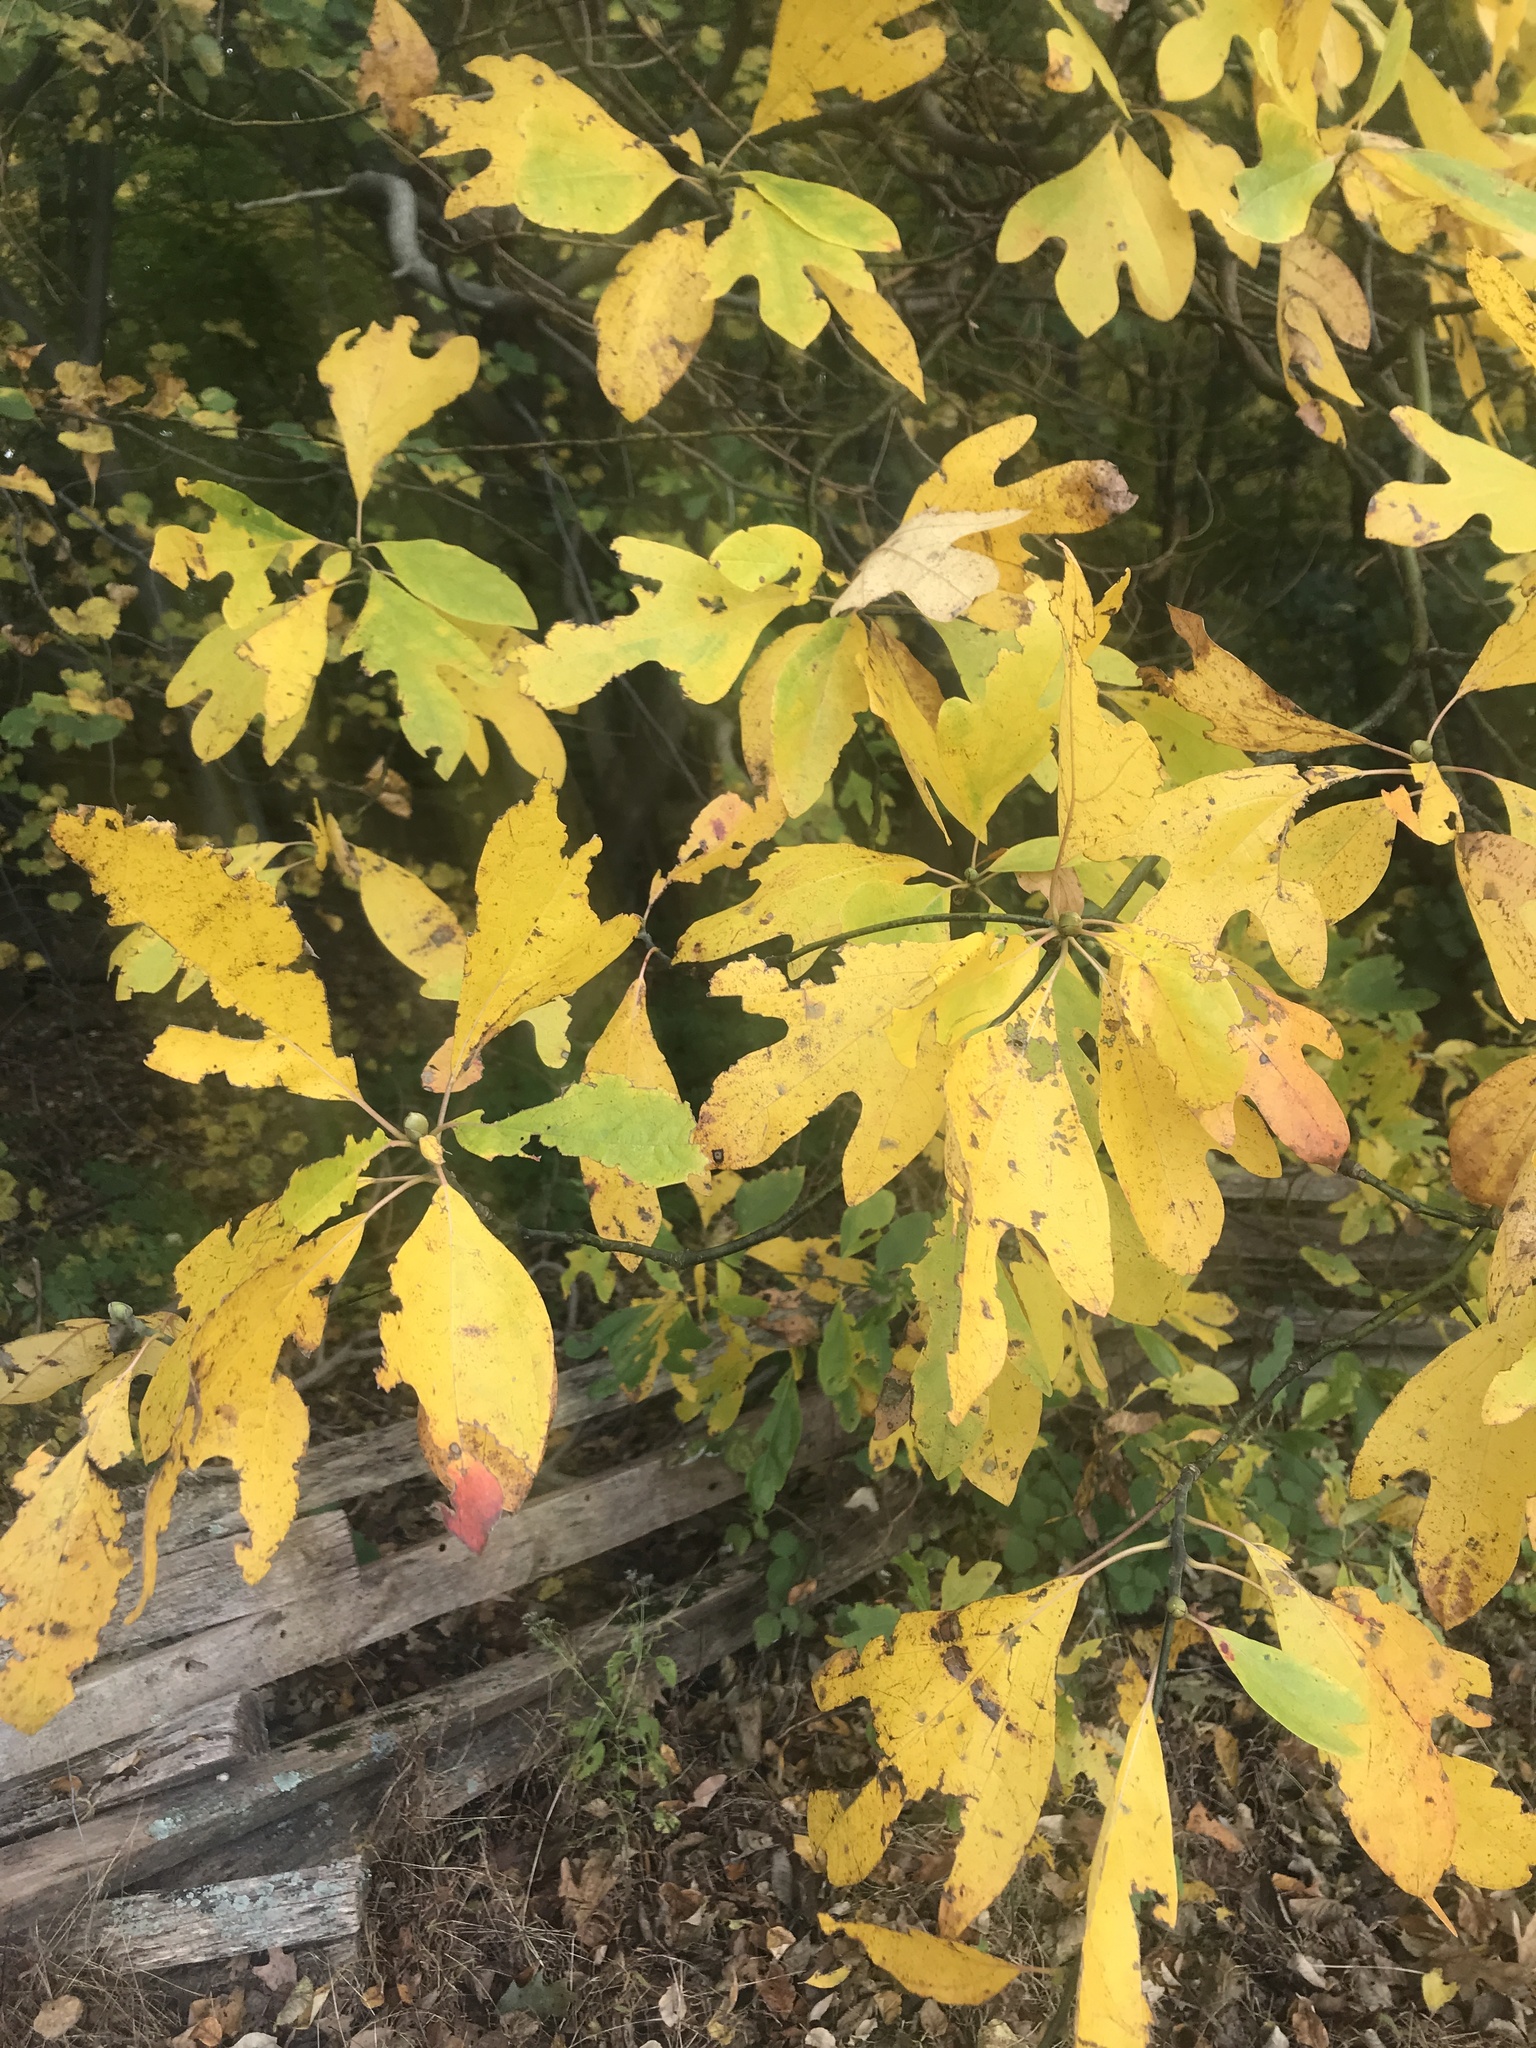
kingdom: Plantae
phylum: Tracheophyta
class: Magnoliopsida
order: Laurales
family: Lauraceae
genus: Sassafras
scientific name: Sassafras albidum
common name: Sassafras
